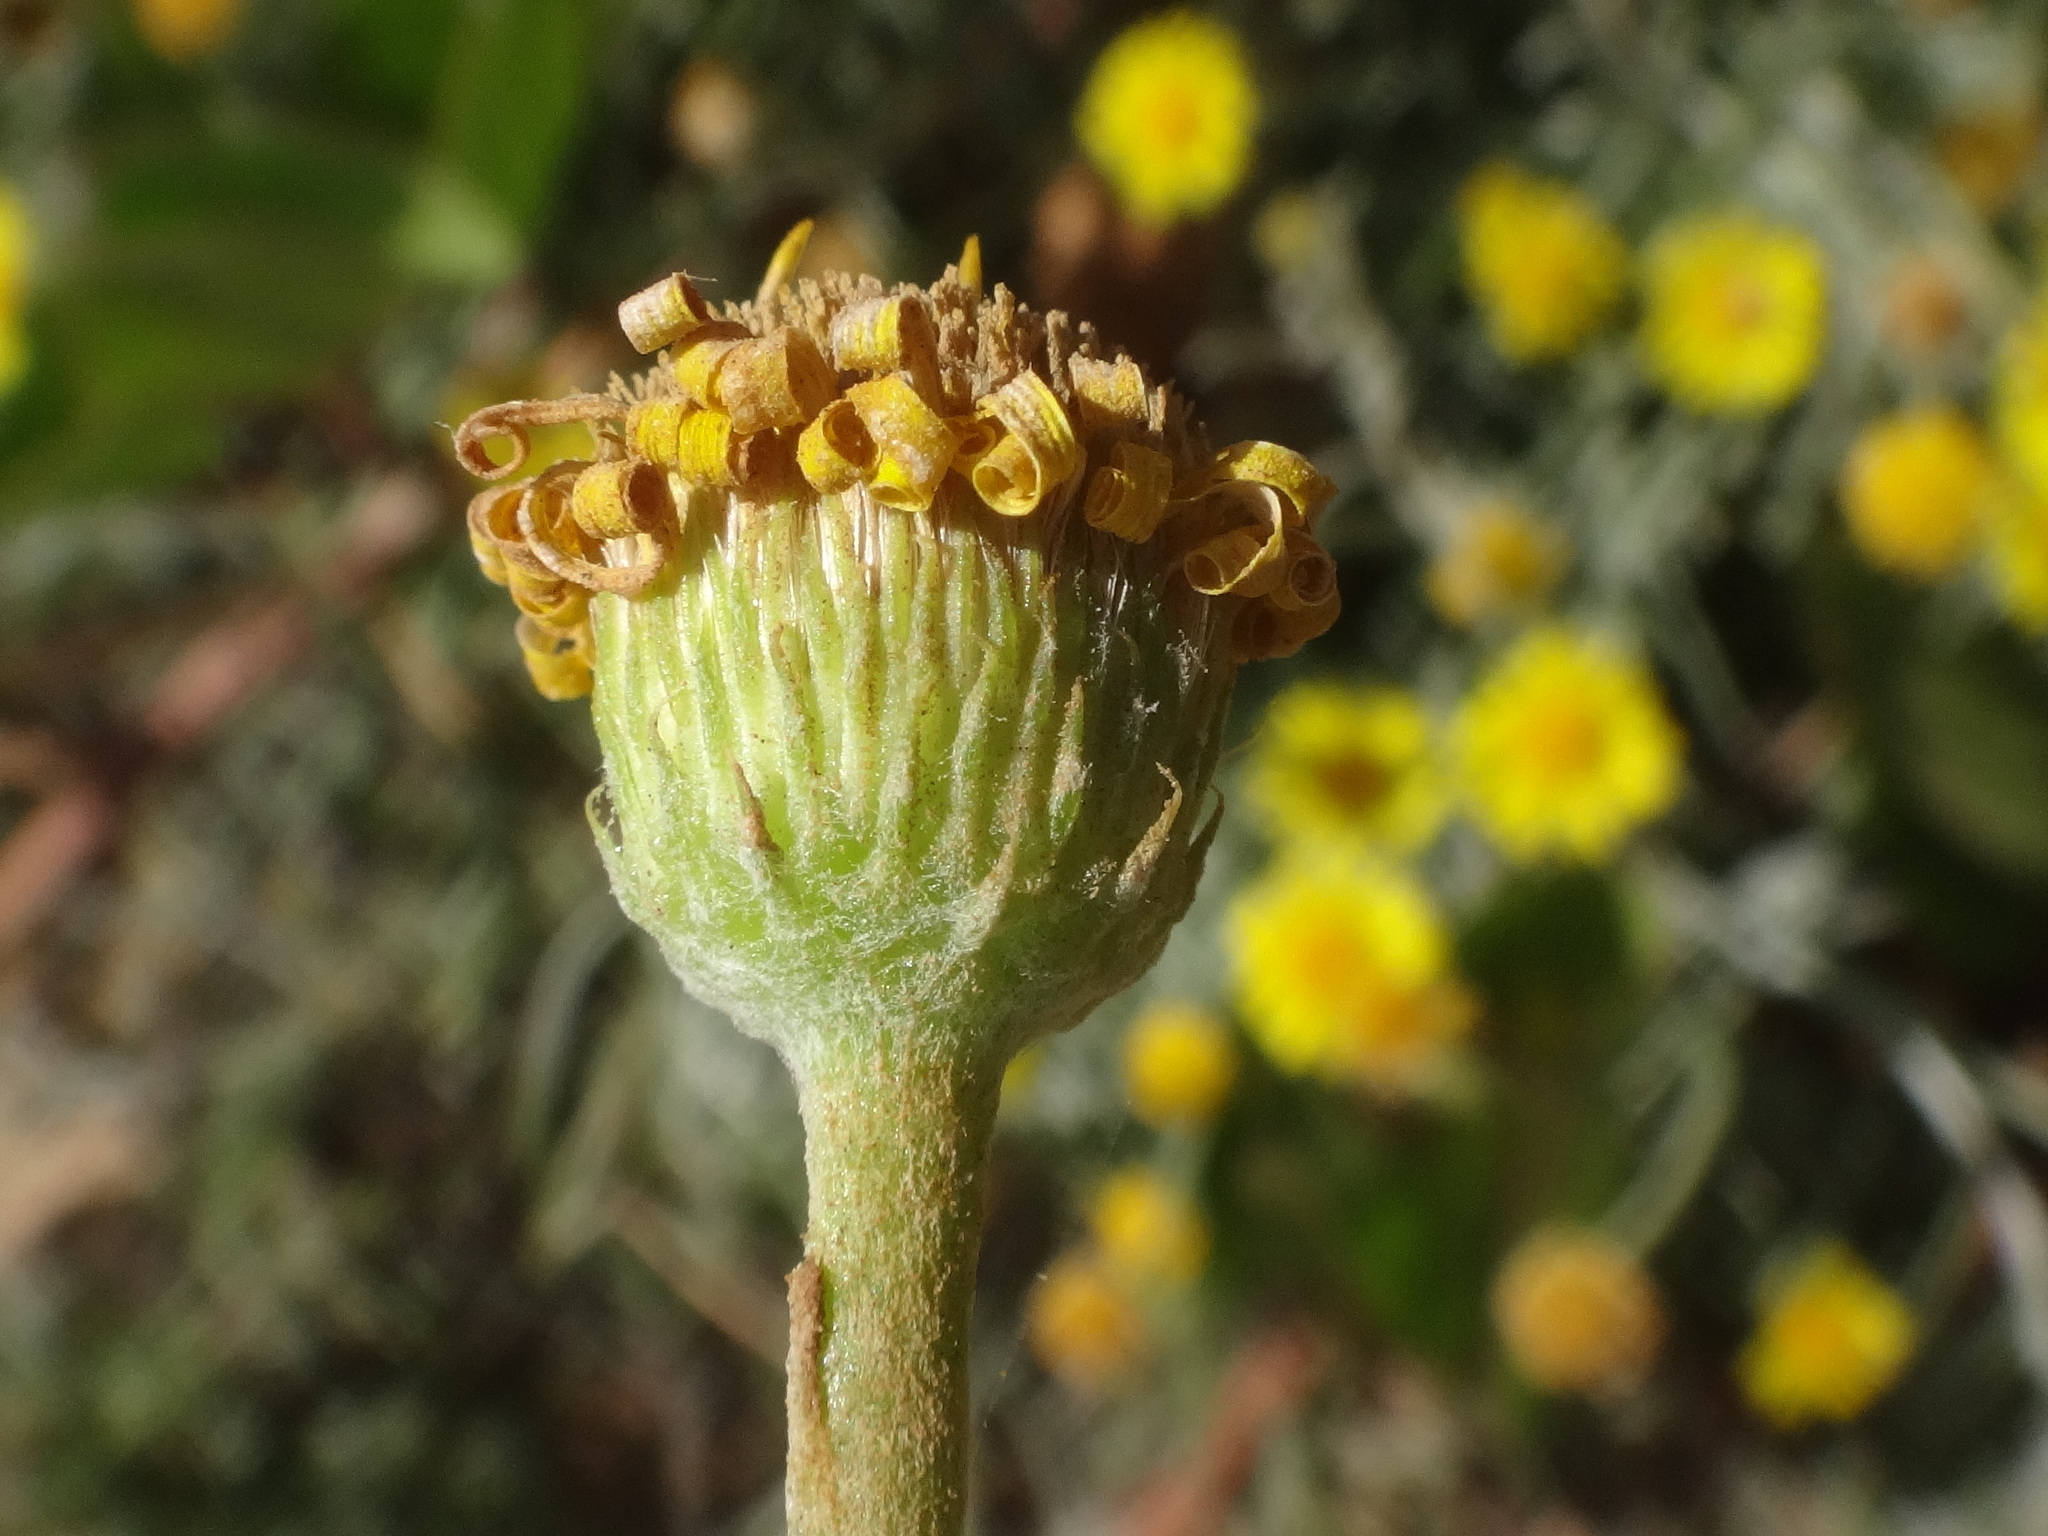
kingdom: Plantae
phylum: Tracheophyta
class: Magnoliopsida
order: Asterales
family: Asteraceae
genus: Pulicaria
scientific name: Pulicaria burchardii
